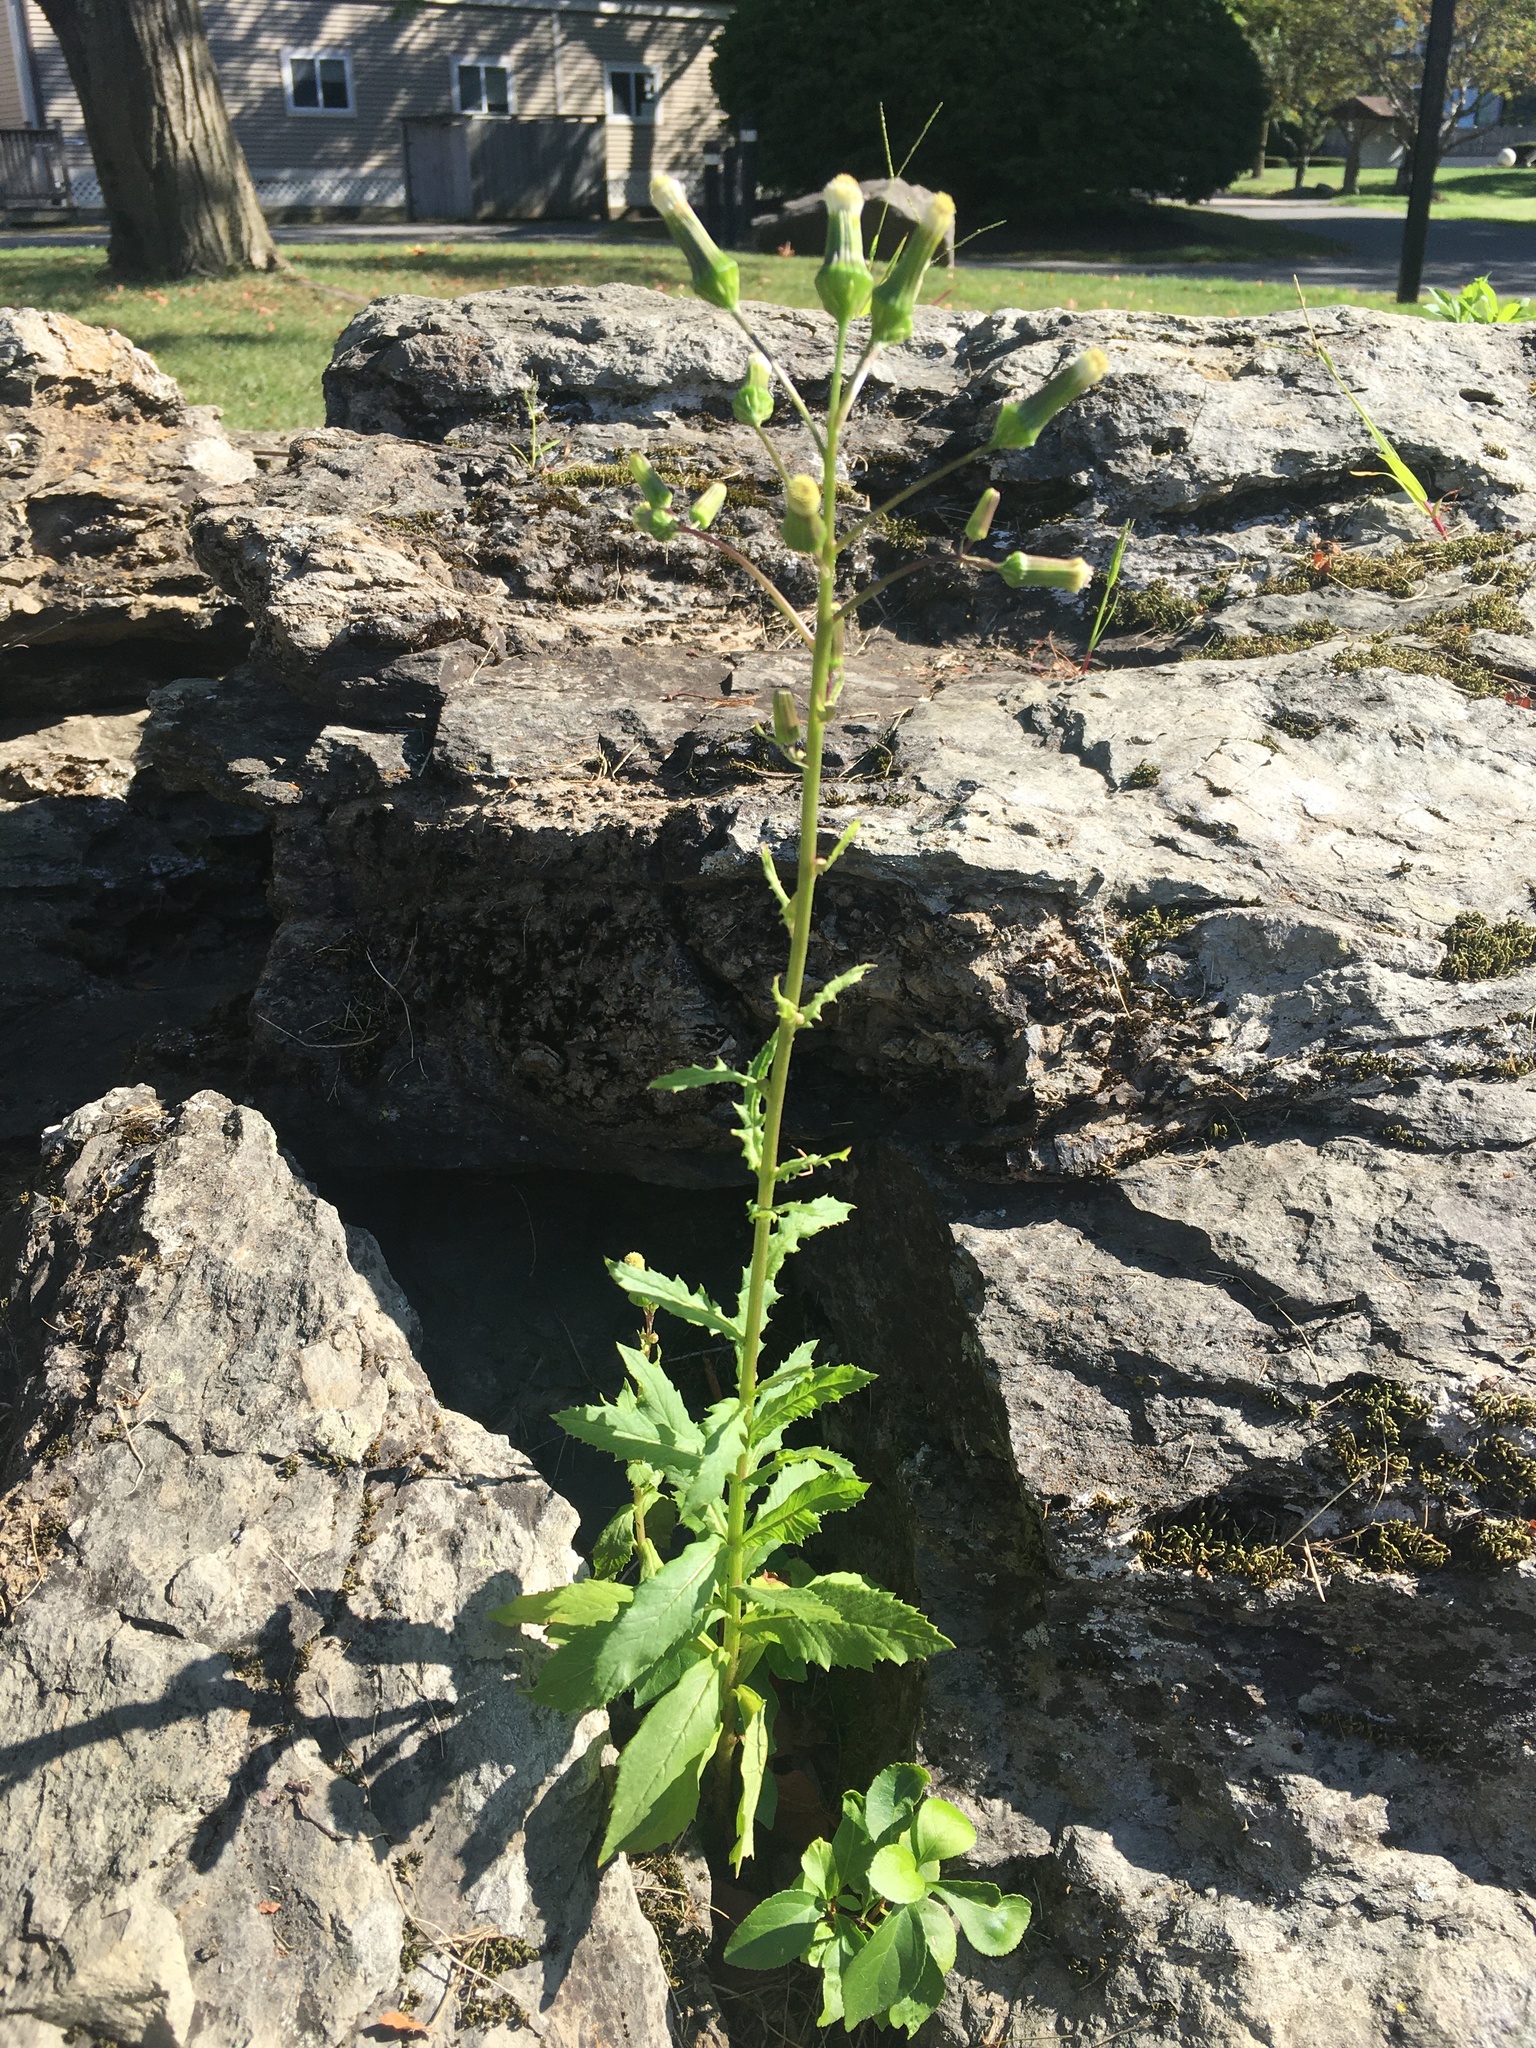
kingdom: Plantae
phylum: Tracheophyta
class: Magnoliopsida
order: Asterales
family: Asteraceae
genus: Erechtites
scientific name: Erechtites hieraciifolius
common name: American burnweed
